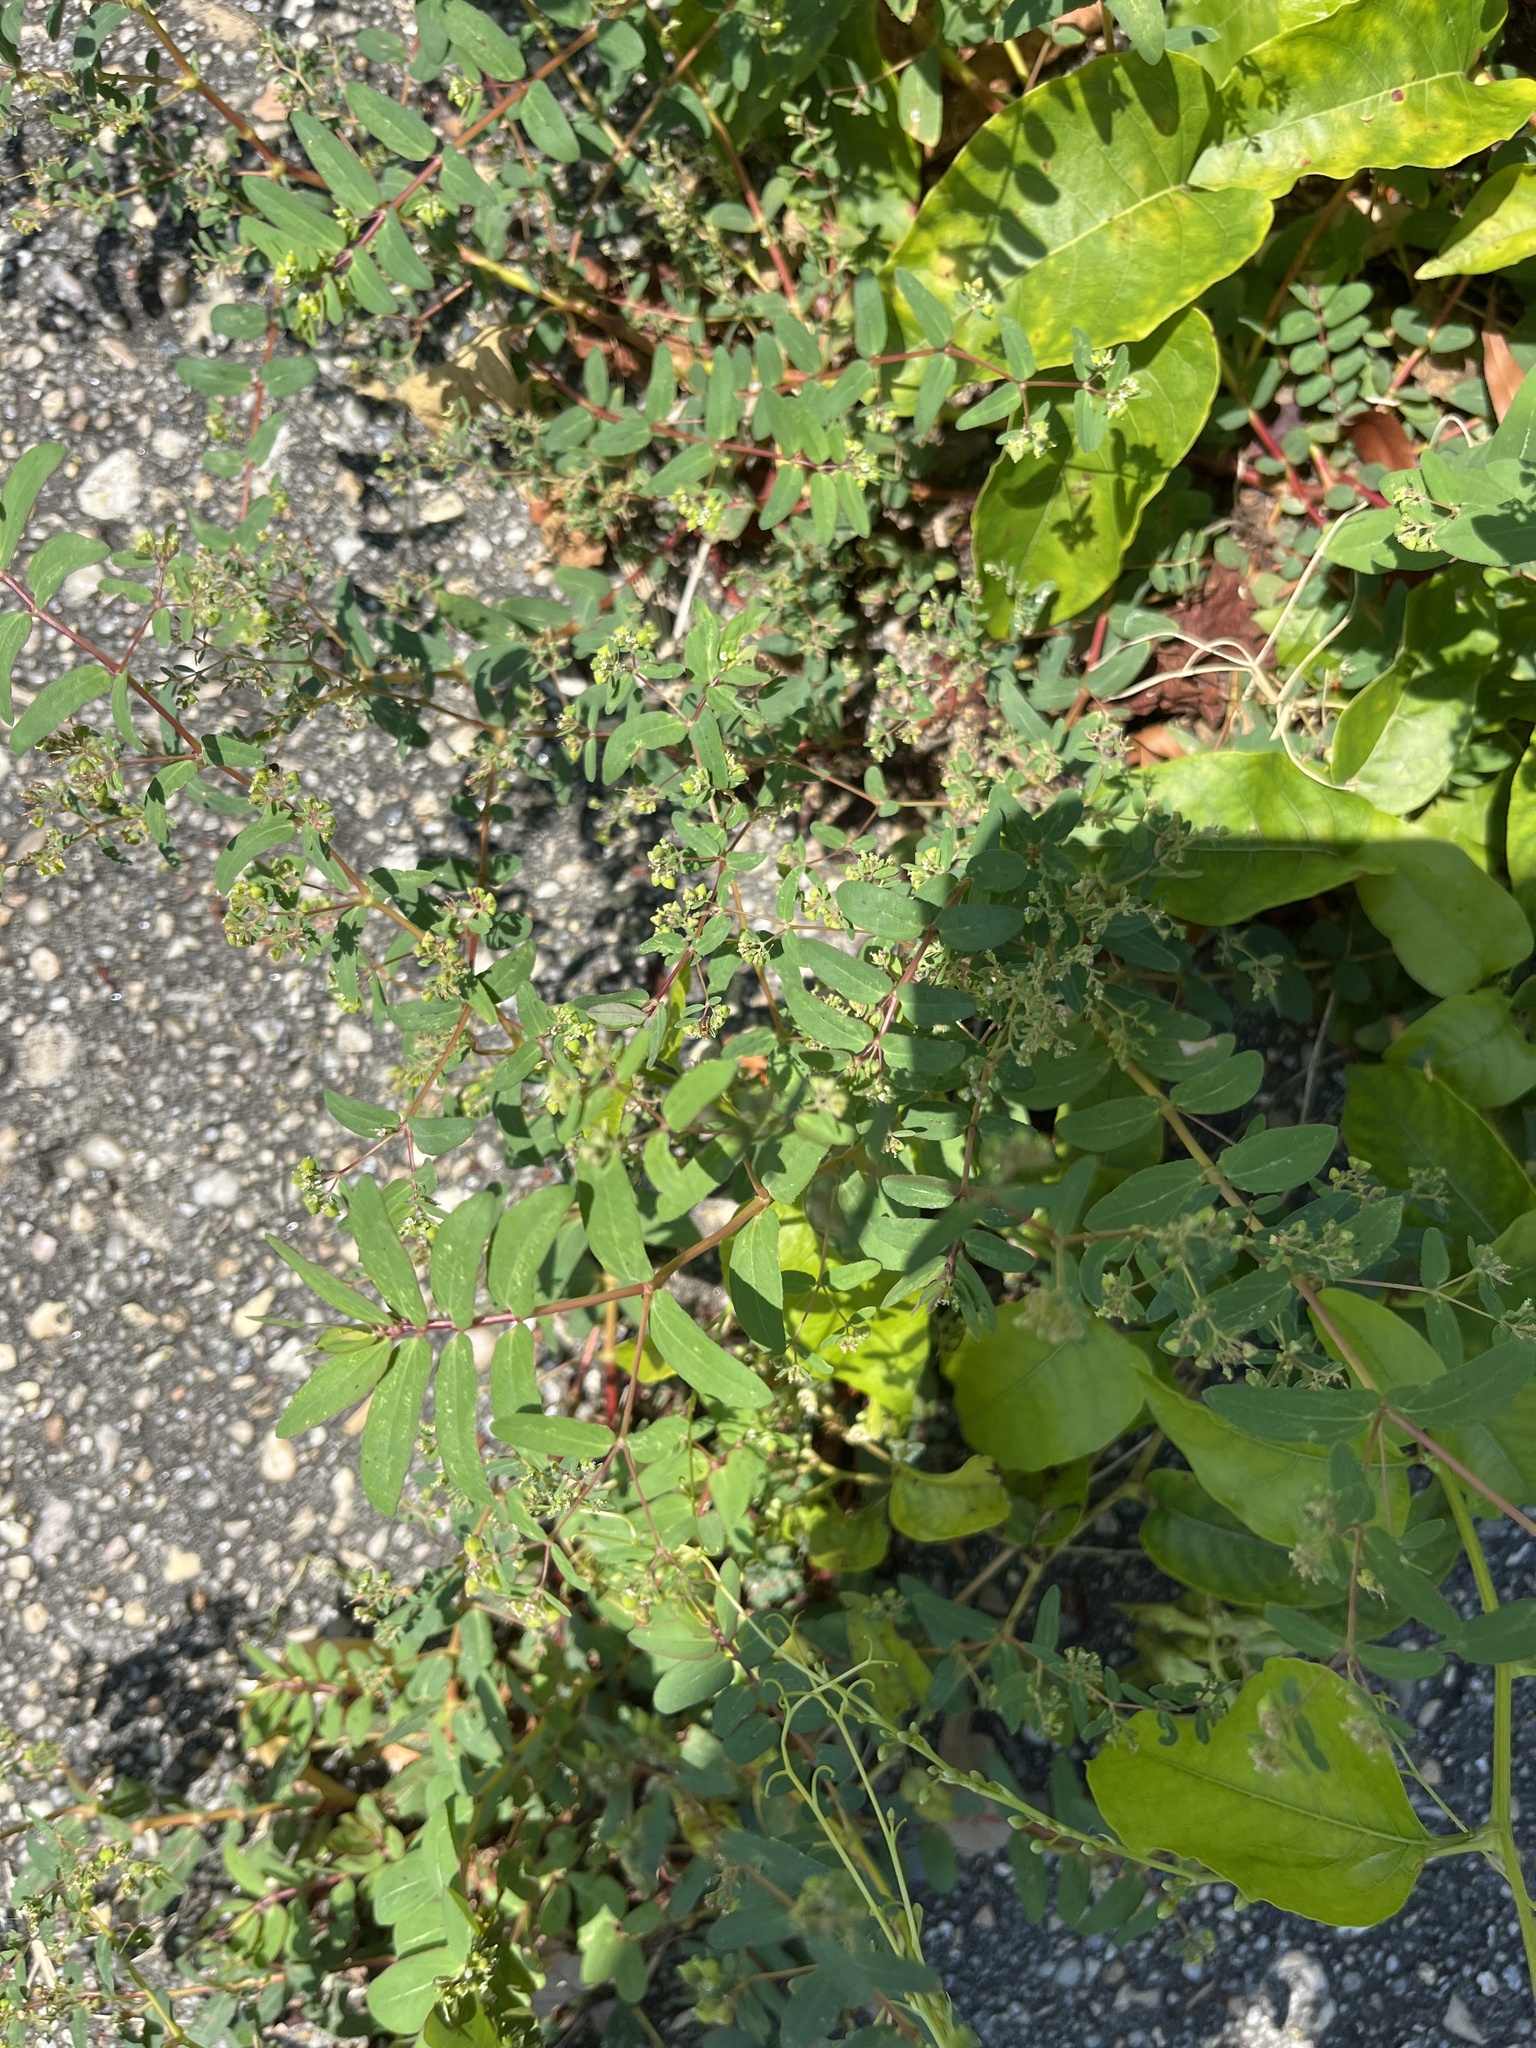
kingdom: Plantae
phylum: Tracheophyta
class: Magnoliopsida
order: Malpighiales
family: Euphorbiaceae
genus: Euphorbia
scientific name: Euphorbia hyssopifolia
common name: Hyssopleaf sandmat
